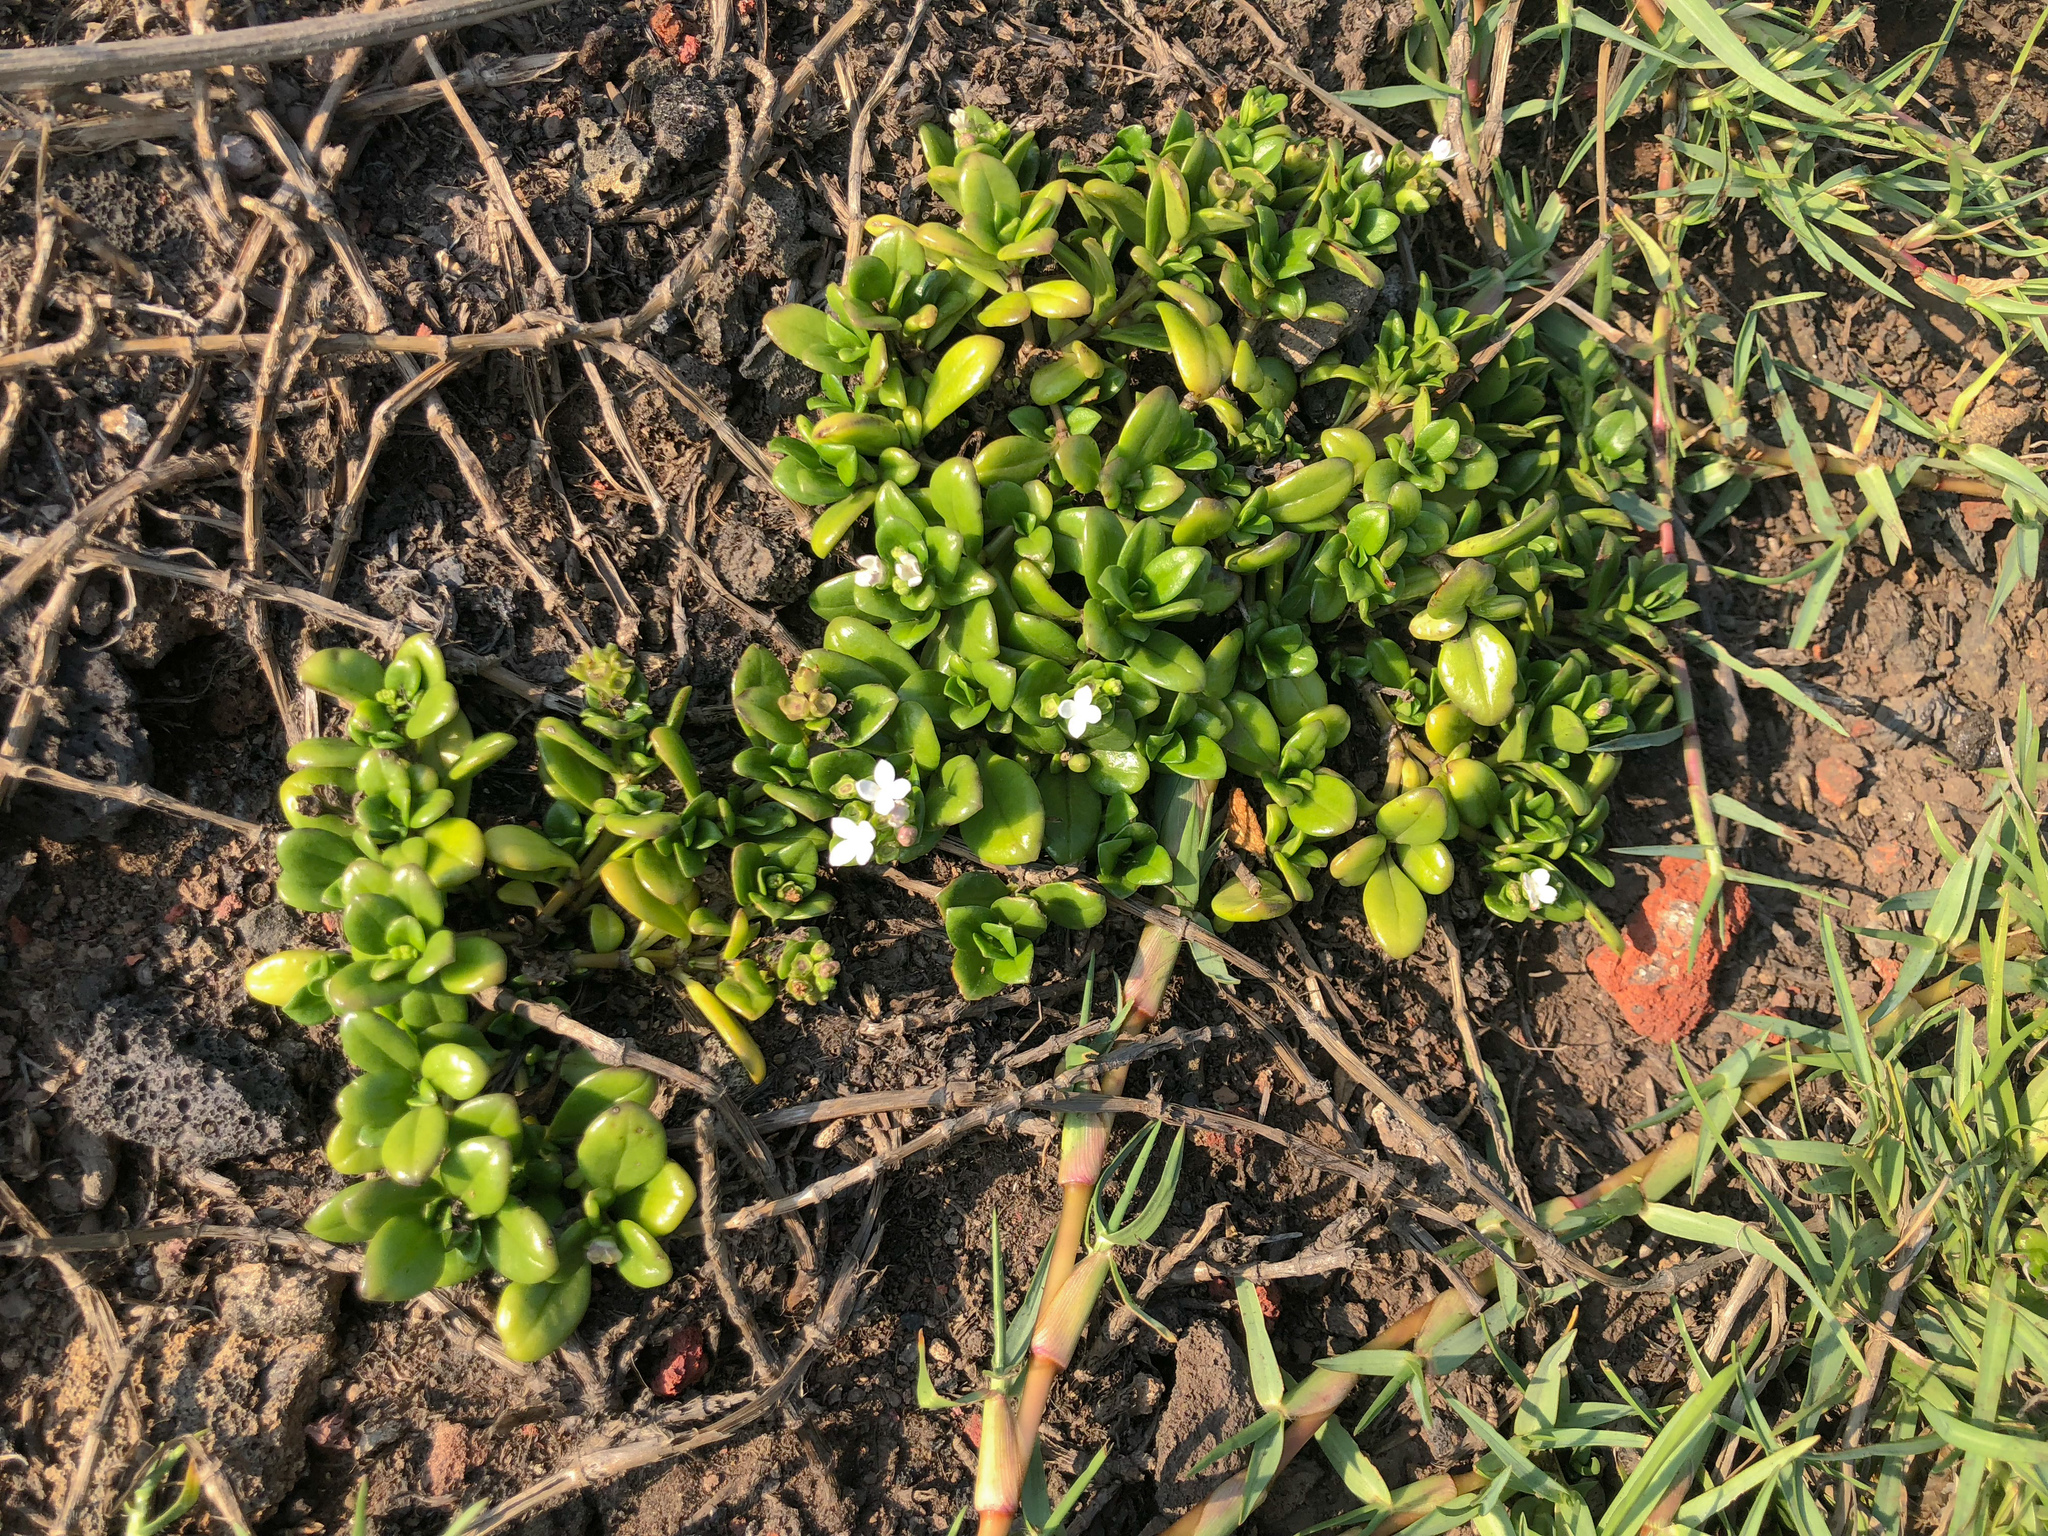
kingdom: Plantae
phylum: Tracheophyta
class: Magnoliopsida
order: Gentianales
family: Rubiaceae
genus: Leptopetalum
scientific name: Leptopetalum strigulosum
